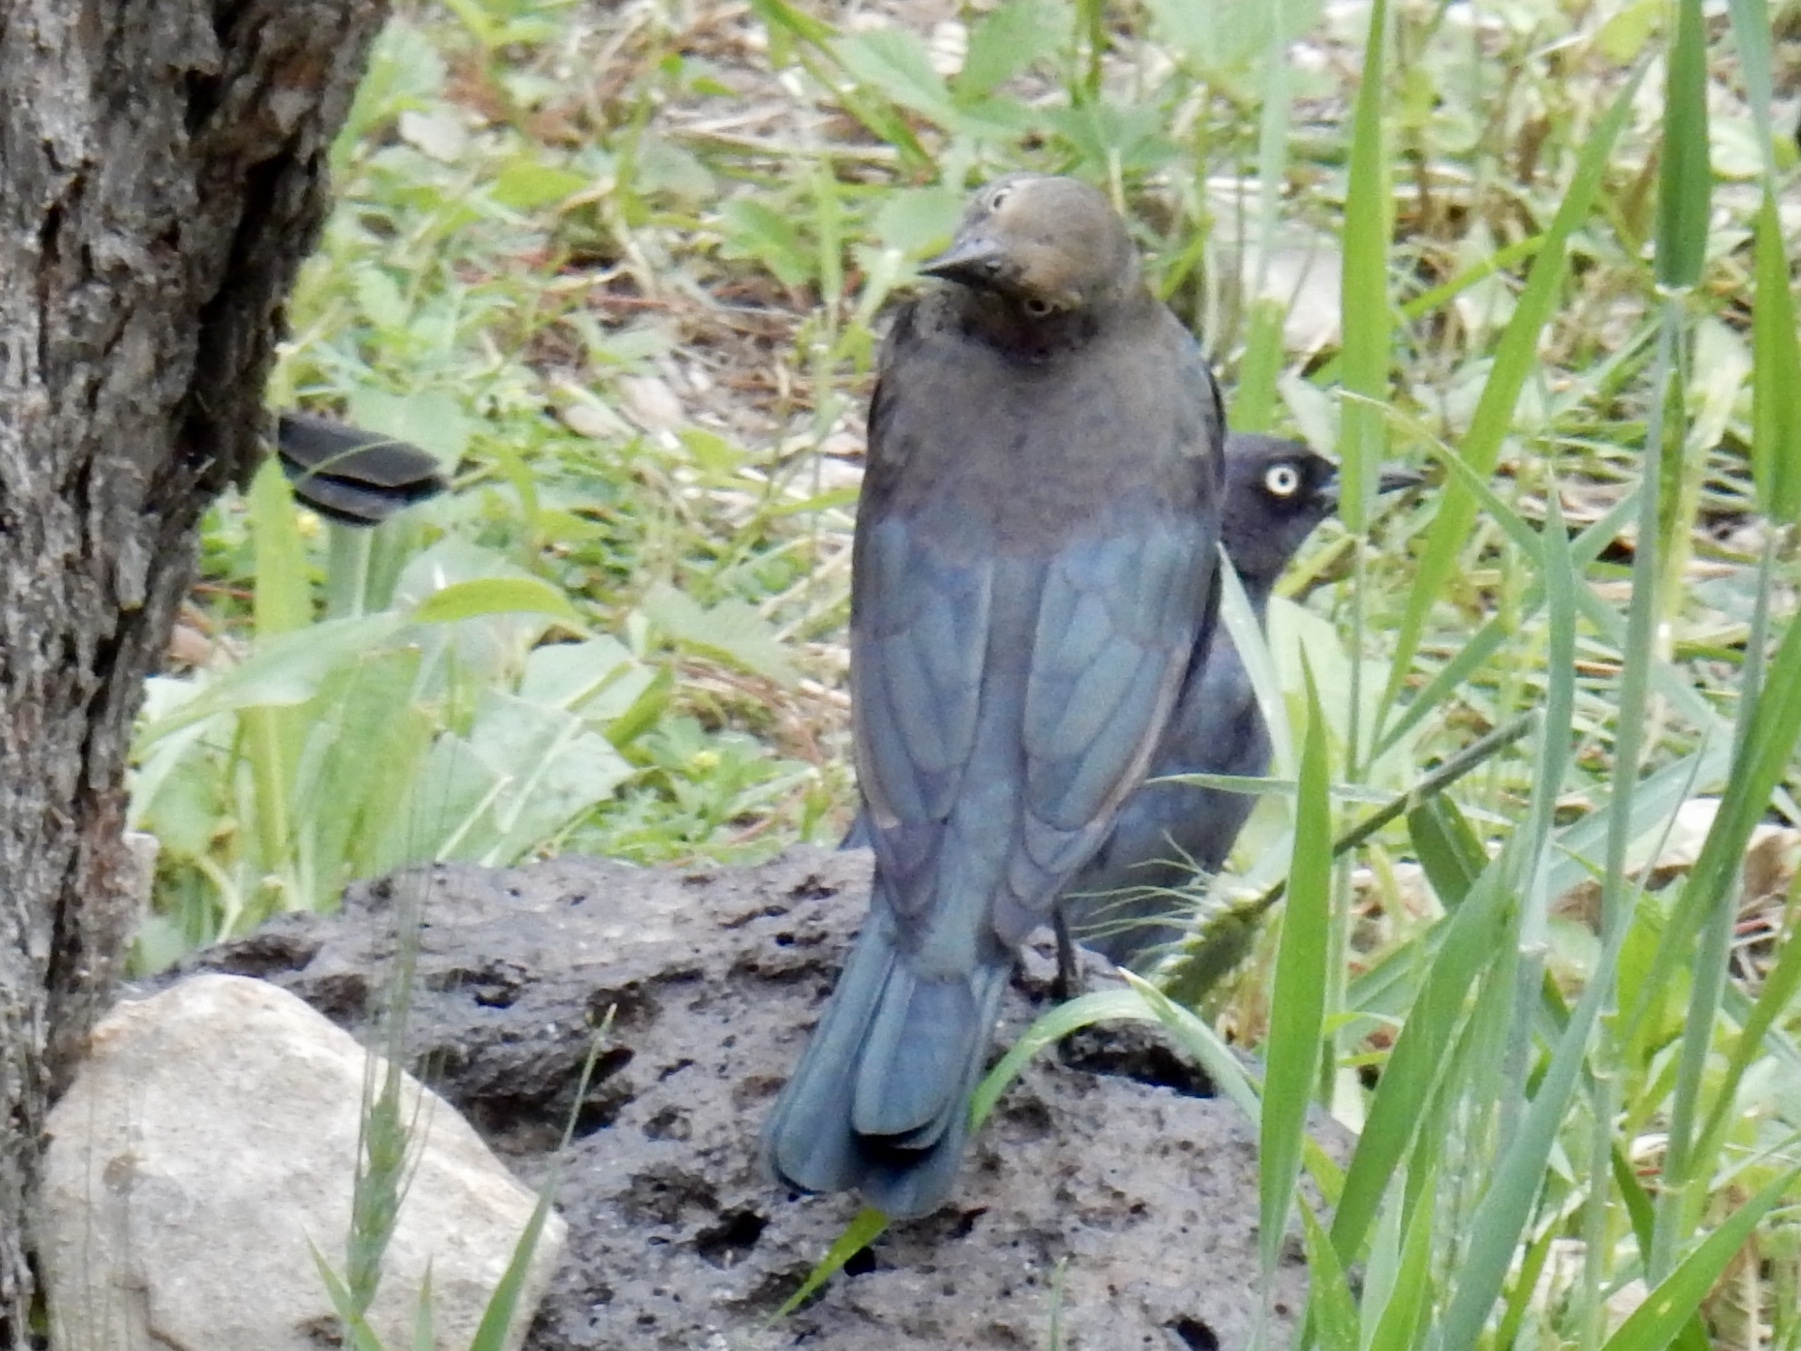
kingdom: Animalia
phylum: Chordata
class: Aves
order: Passeriformes
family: Icteridae
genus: Euphagus
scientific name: Euphagus cyanocephalus
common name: Brewer's blackbird
